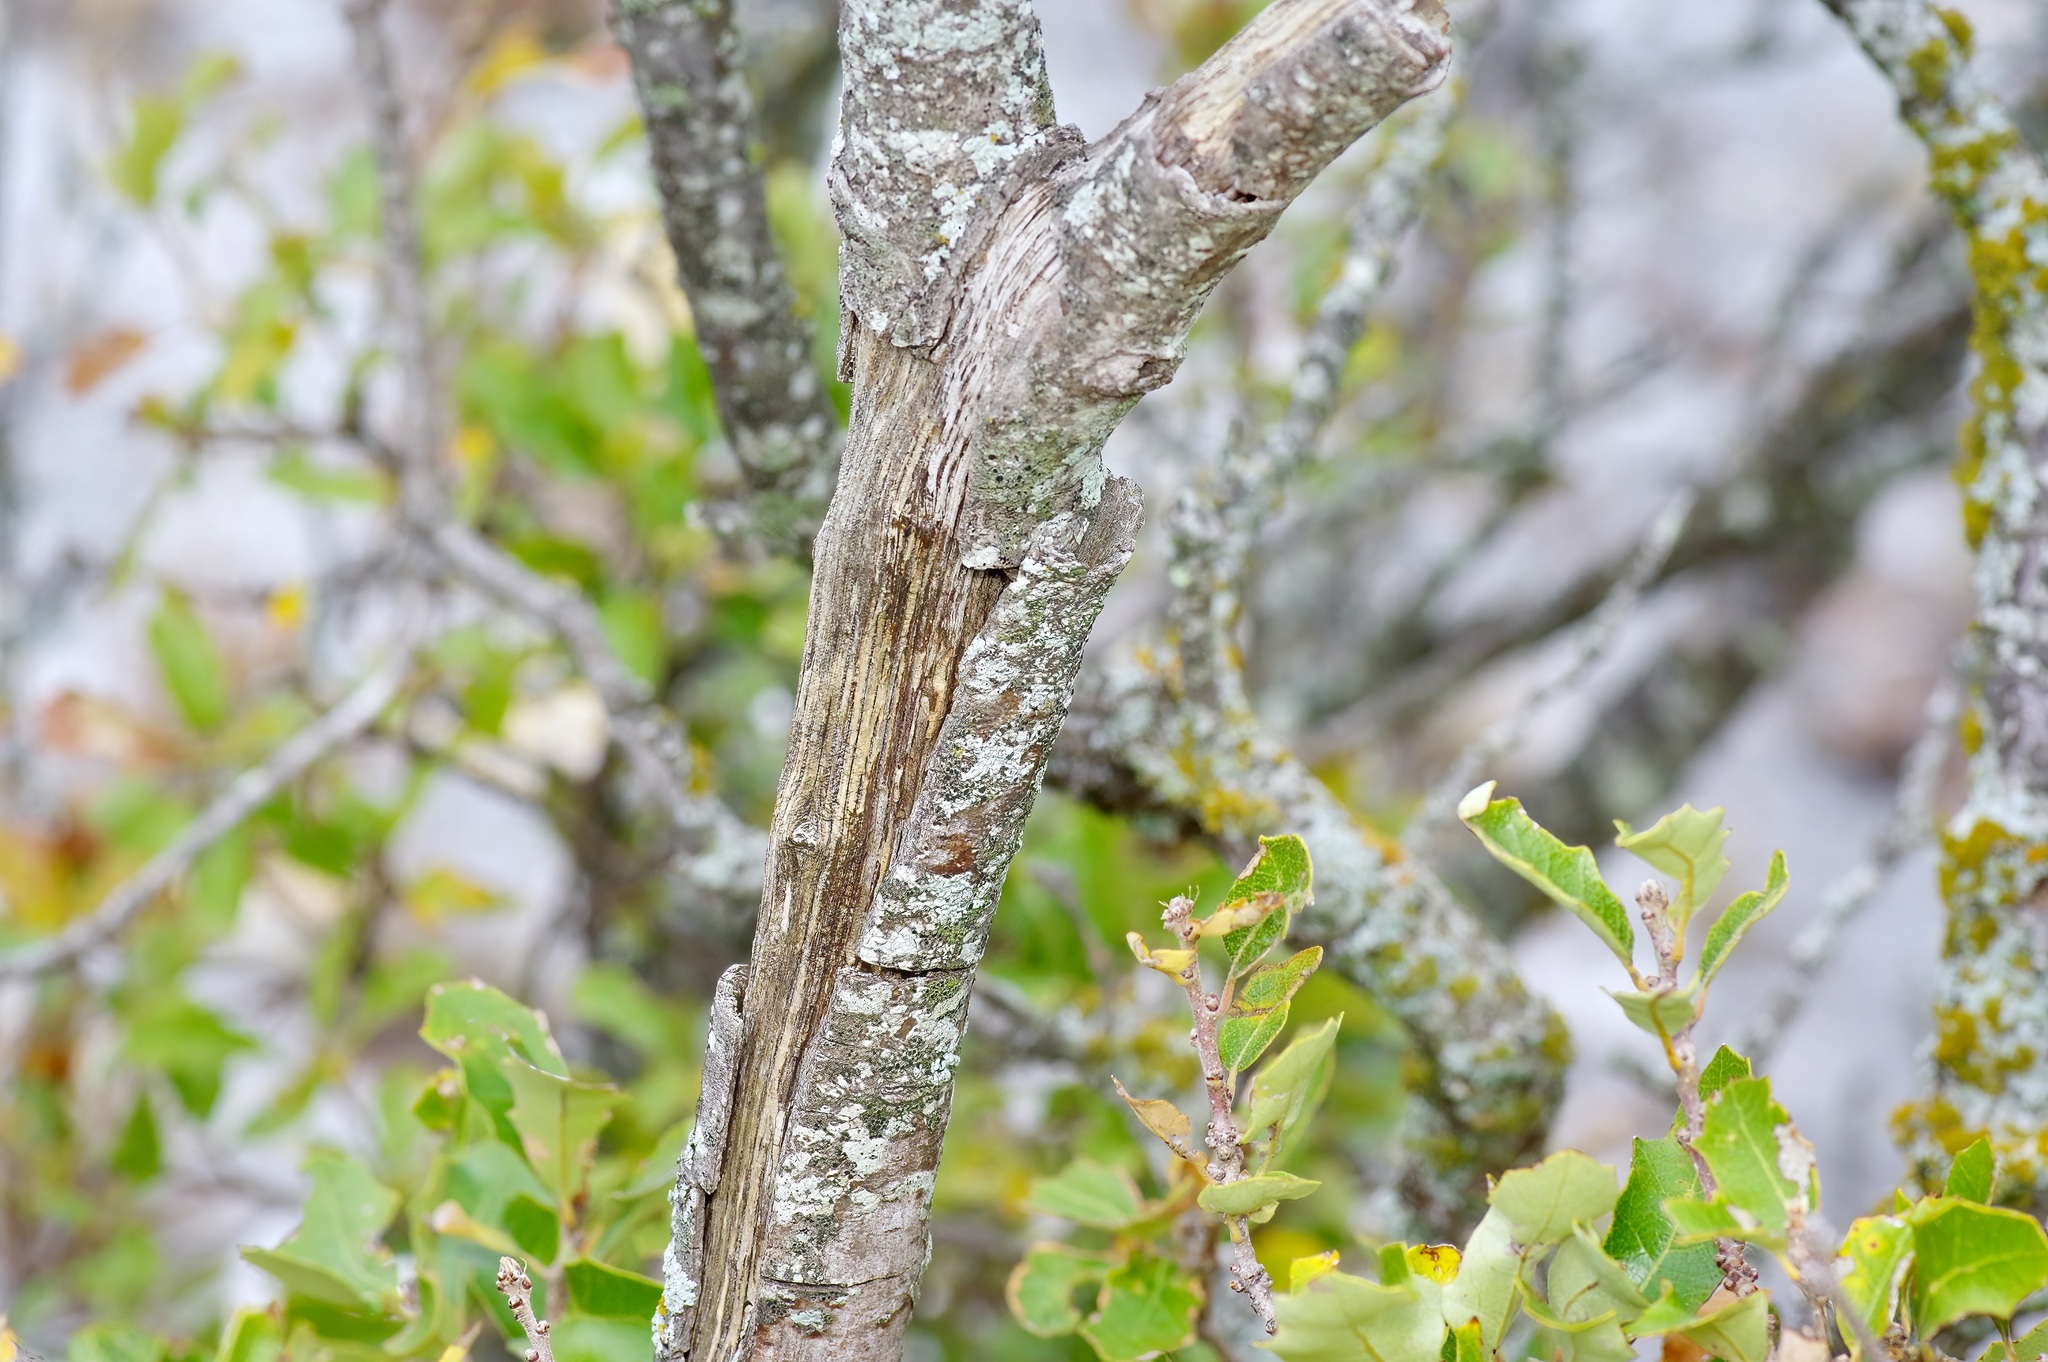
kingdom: Plantae
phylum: Tracheophyta
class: Magnoliopsida
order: Fagales
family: Fagaceae
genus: Quercus
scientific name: Quercus vaseyana
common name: Sandpaper oak
